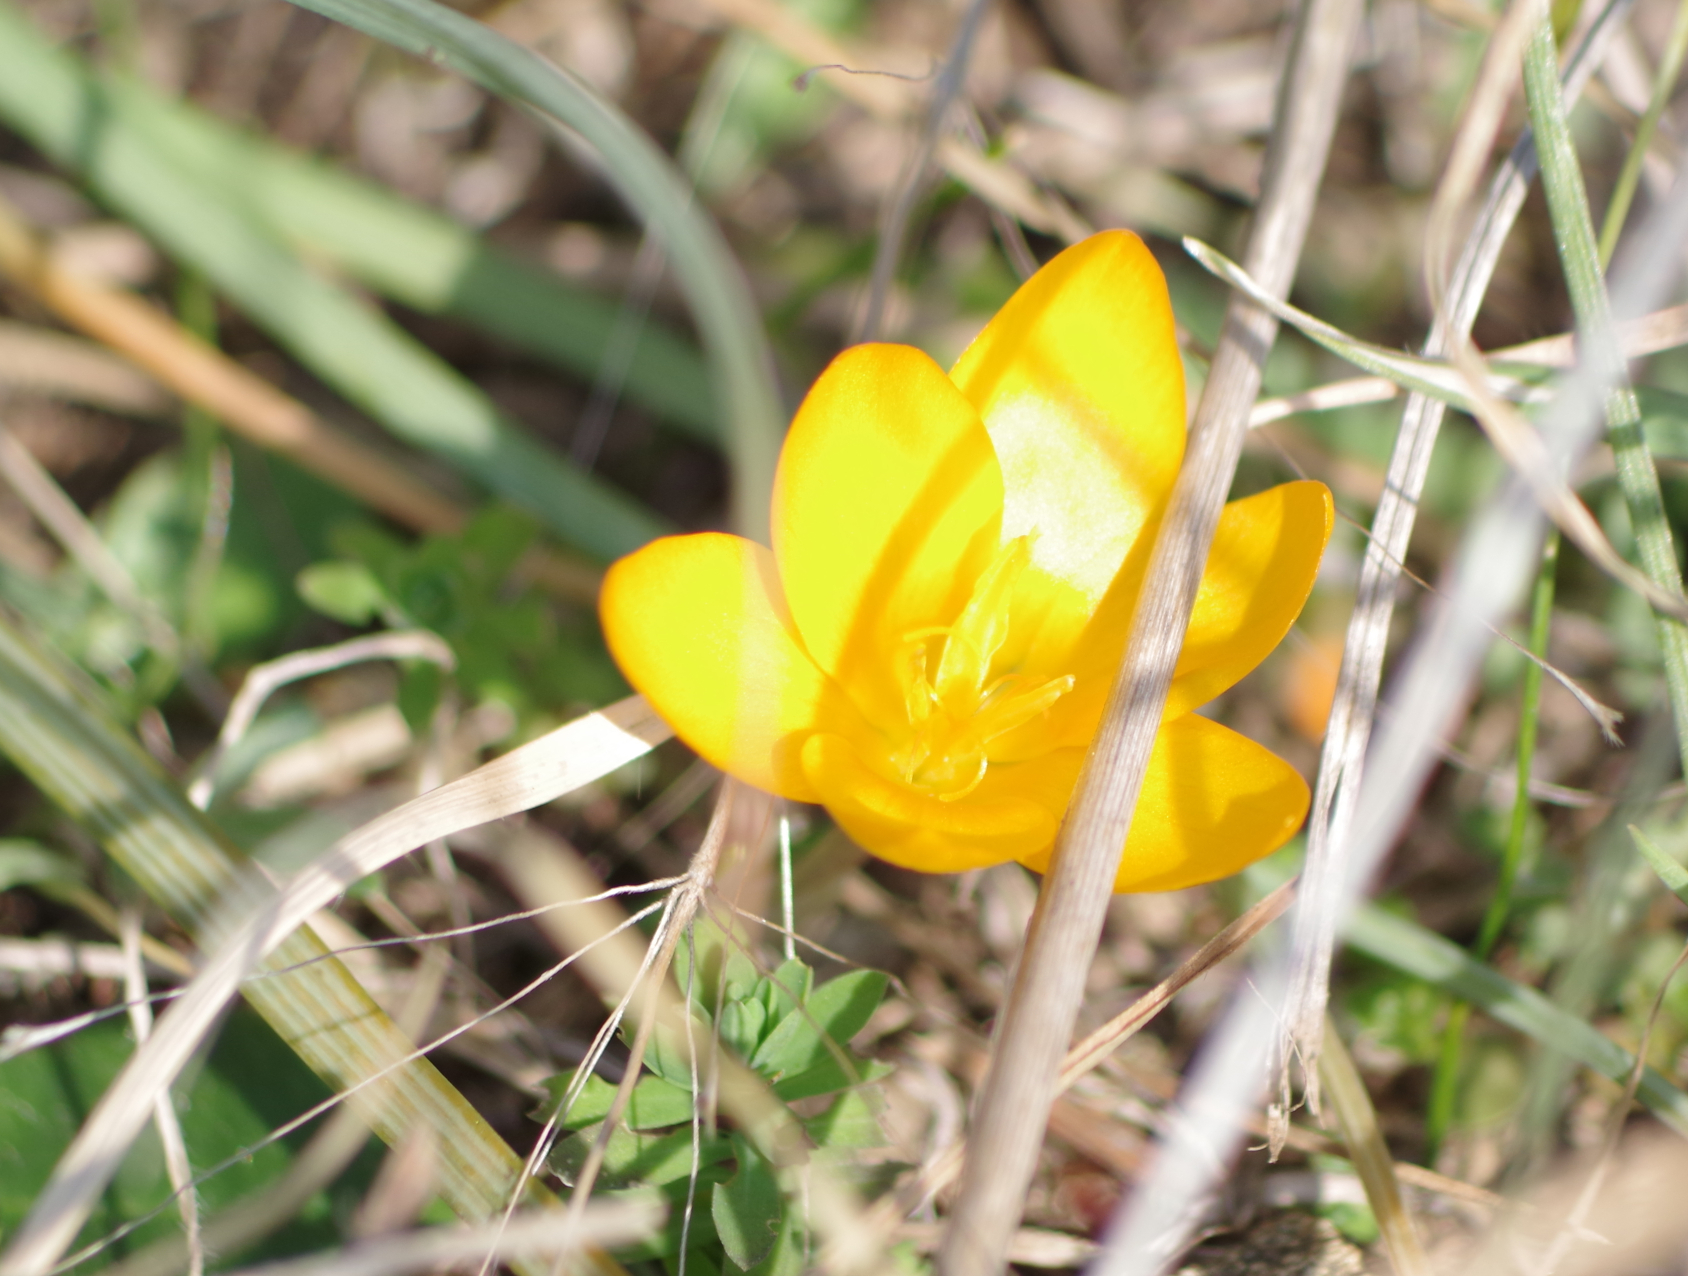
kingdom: Plantae
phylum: Tracheophyta
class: Liliopsida
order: Asparagales
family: Iridaceae
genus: Crocus
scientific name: Crocus olivieri
